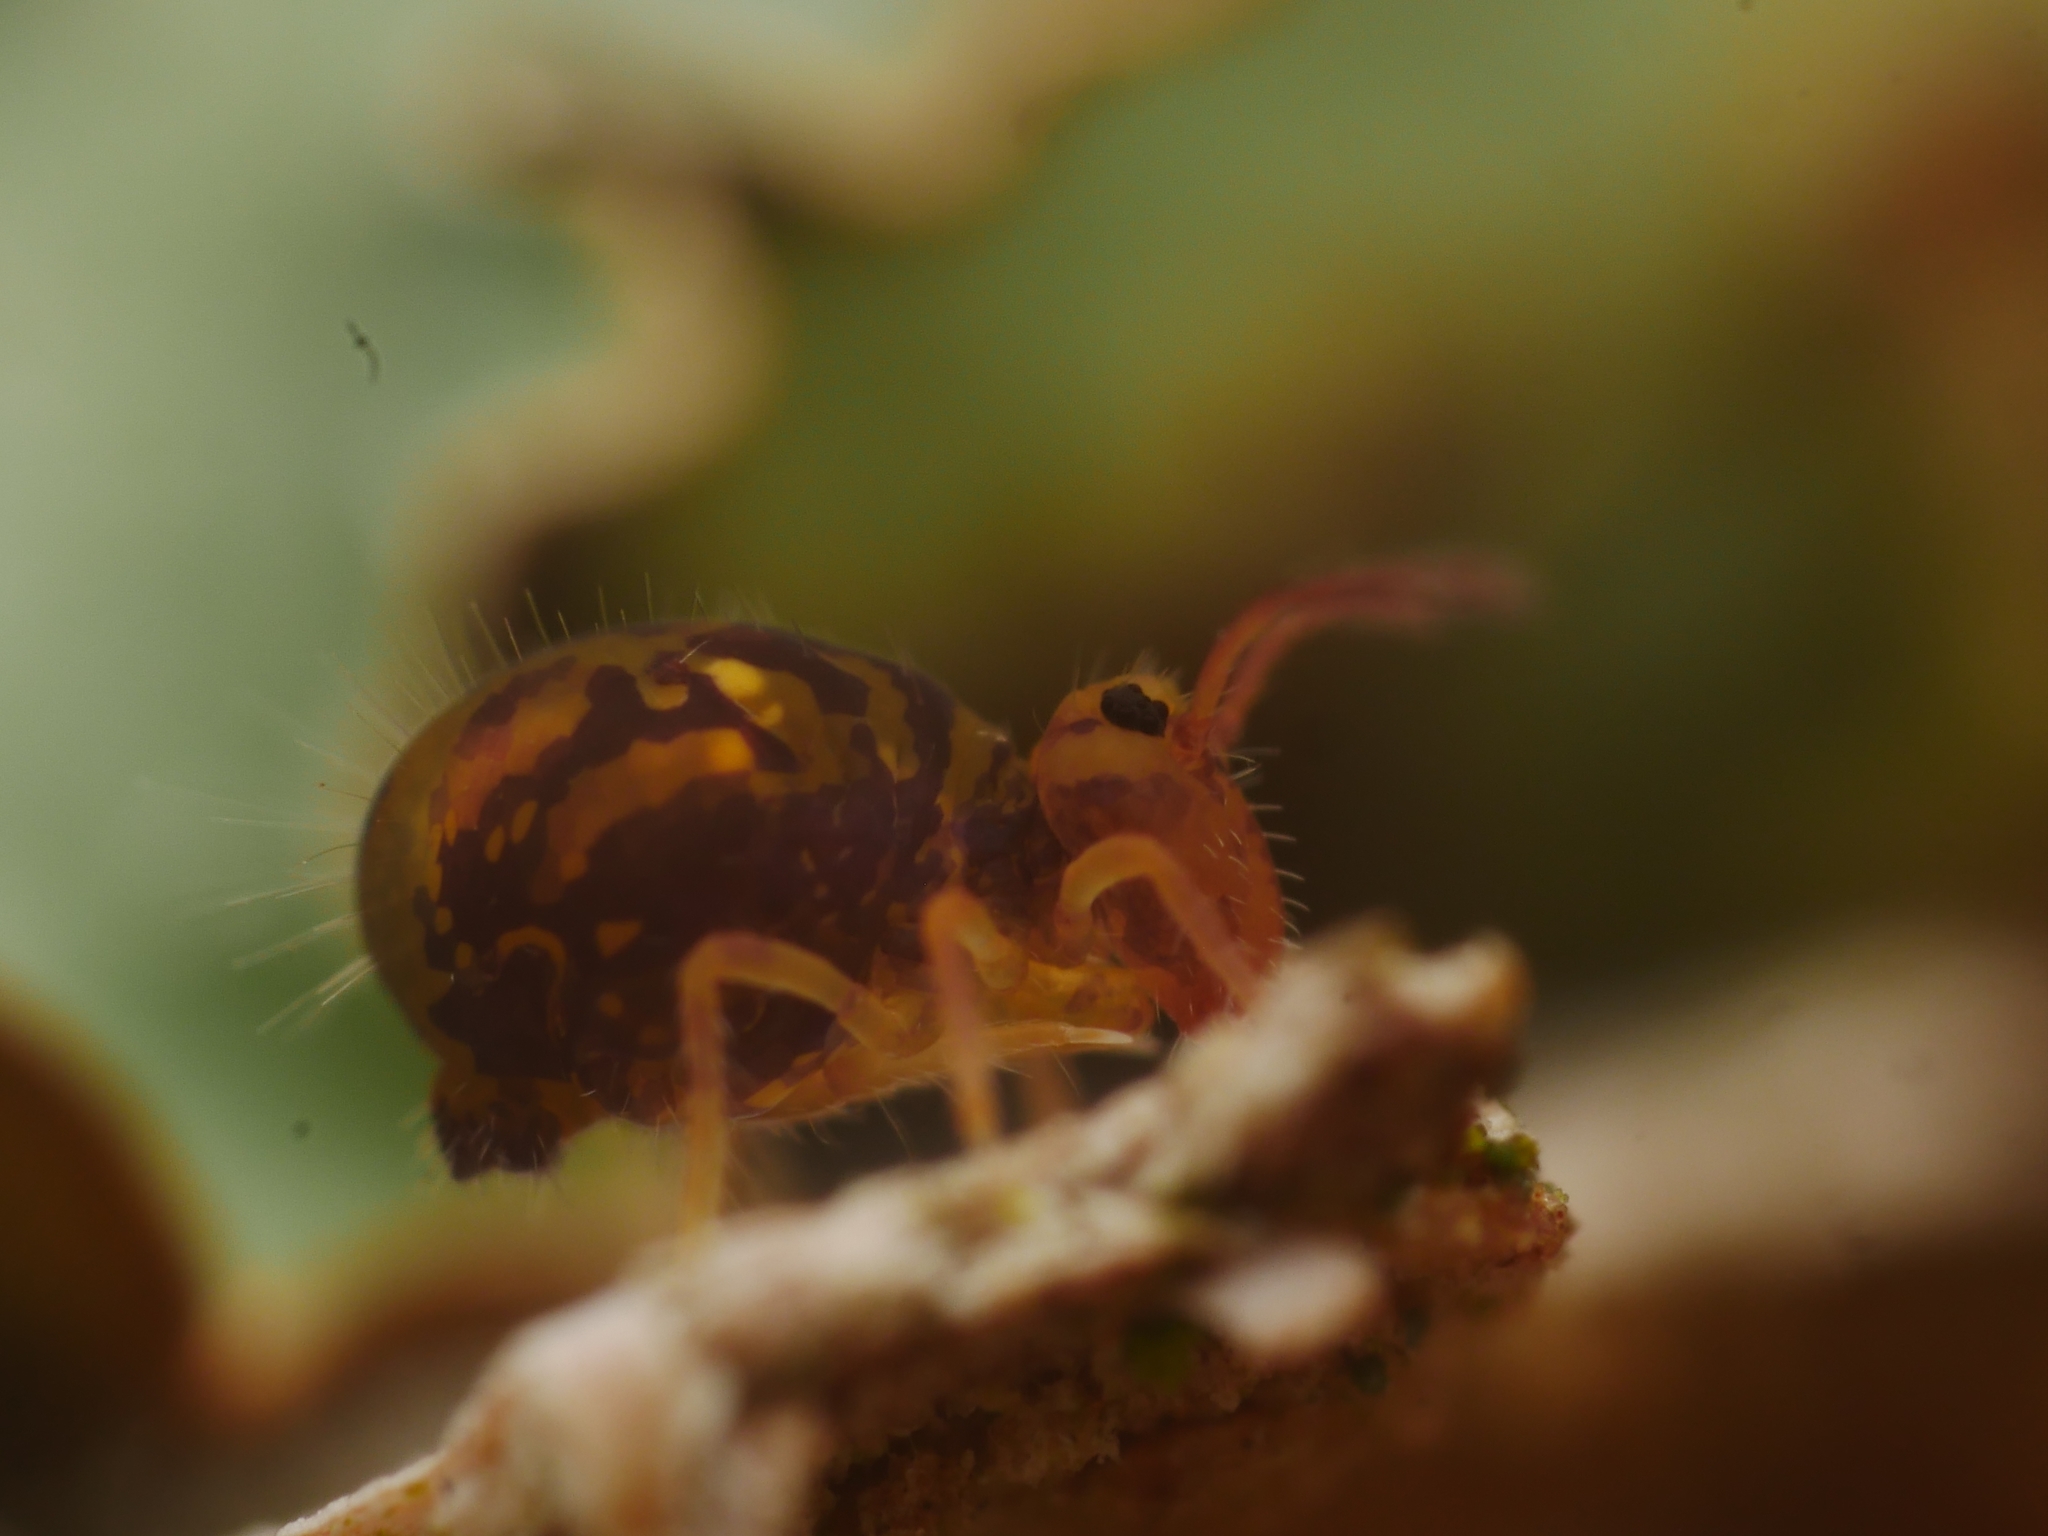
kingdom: Animalia
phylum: Arthropoda
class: Collembola
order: Symphypleona
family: Dicyrtomidae
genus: Dicyrtomina
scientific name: Dicyrtomina ornata
